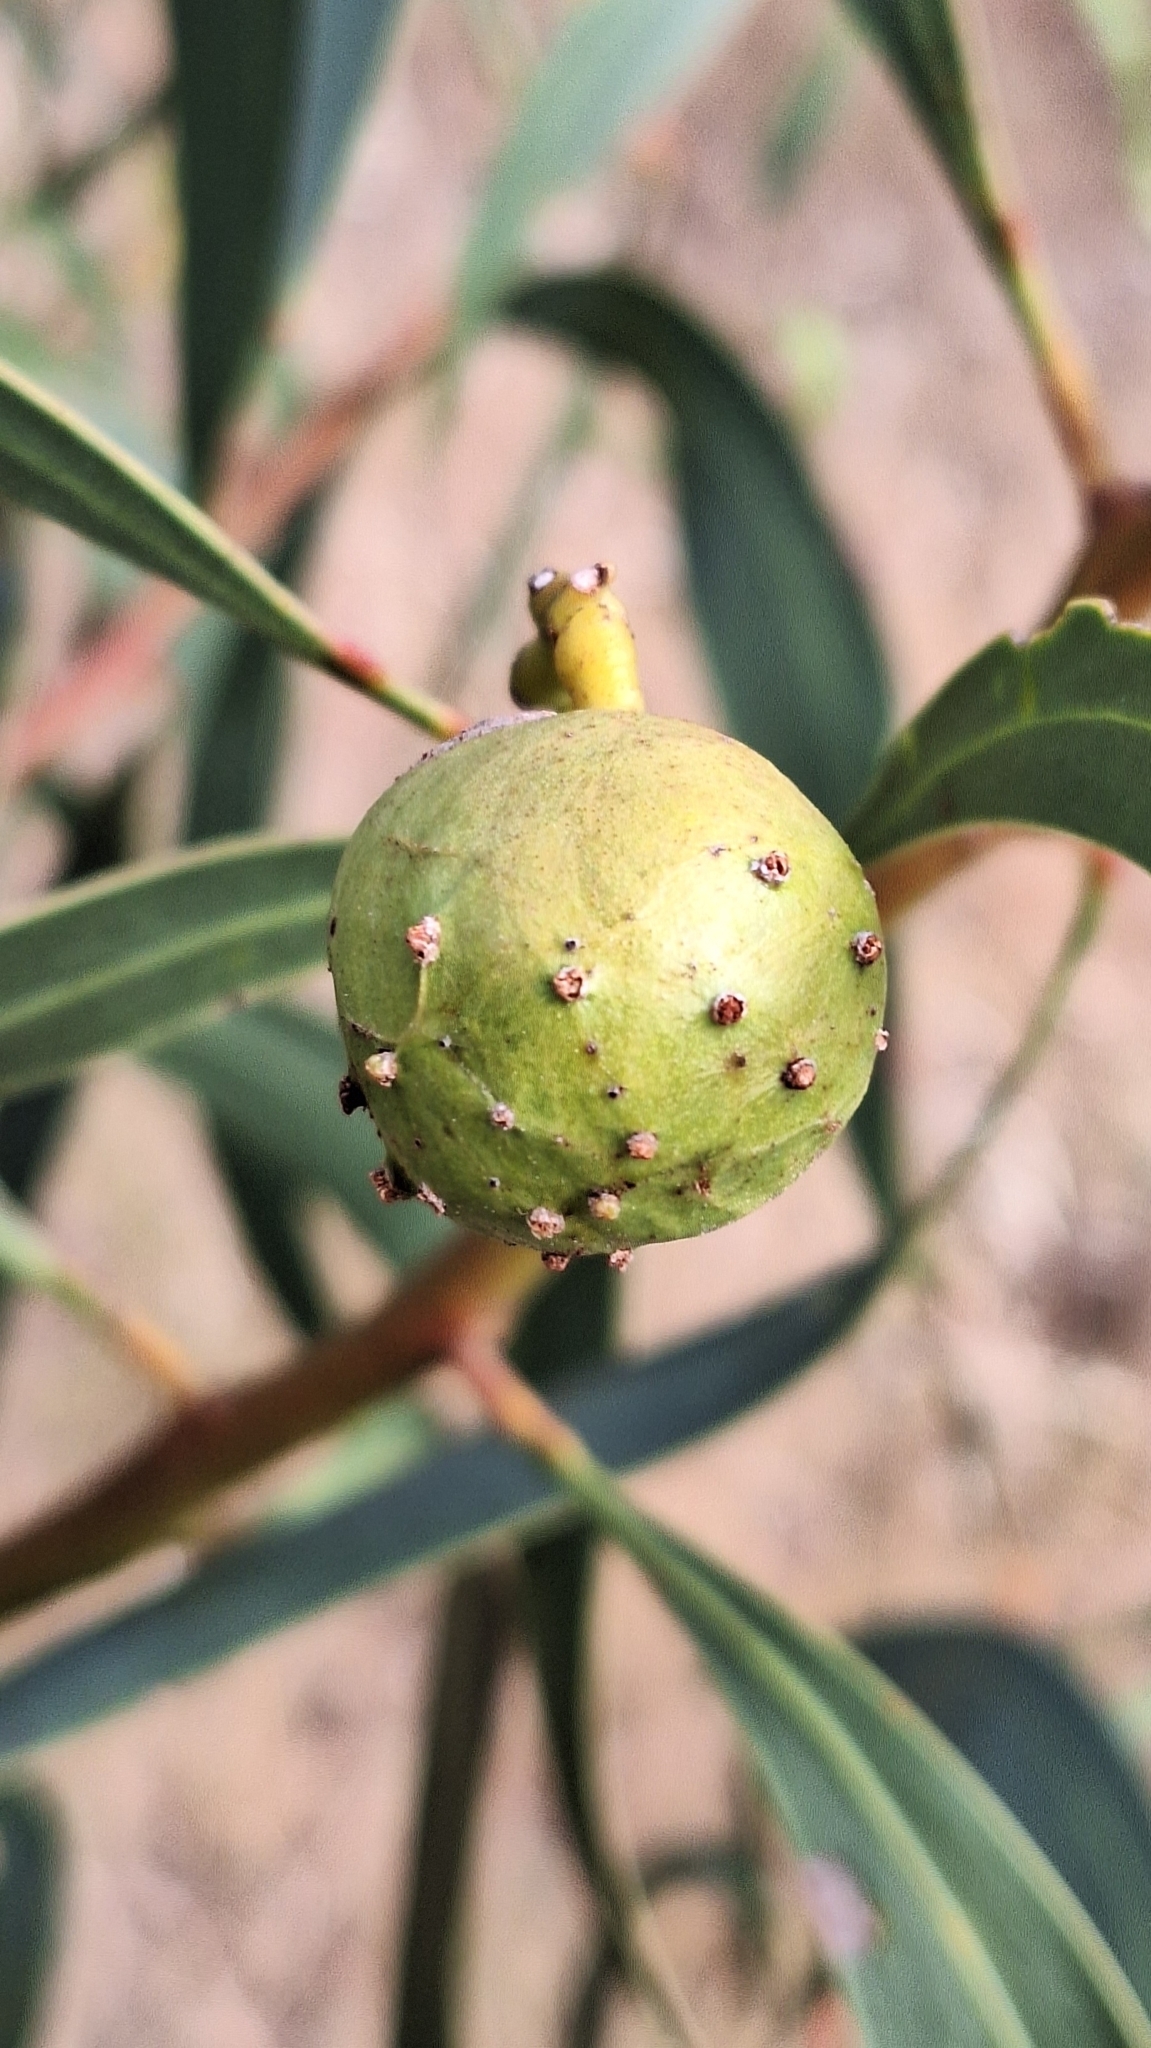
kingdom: Animalia
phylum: Arthropoda
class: Insecta
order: Hymenoptera
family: Pteromalidae
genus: Trichilogaster
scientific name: Trichilogaster signiventris
